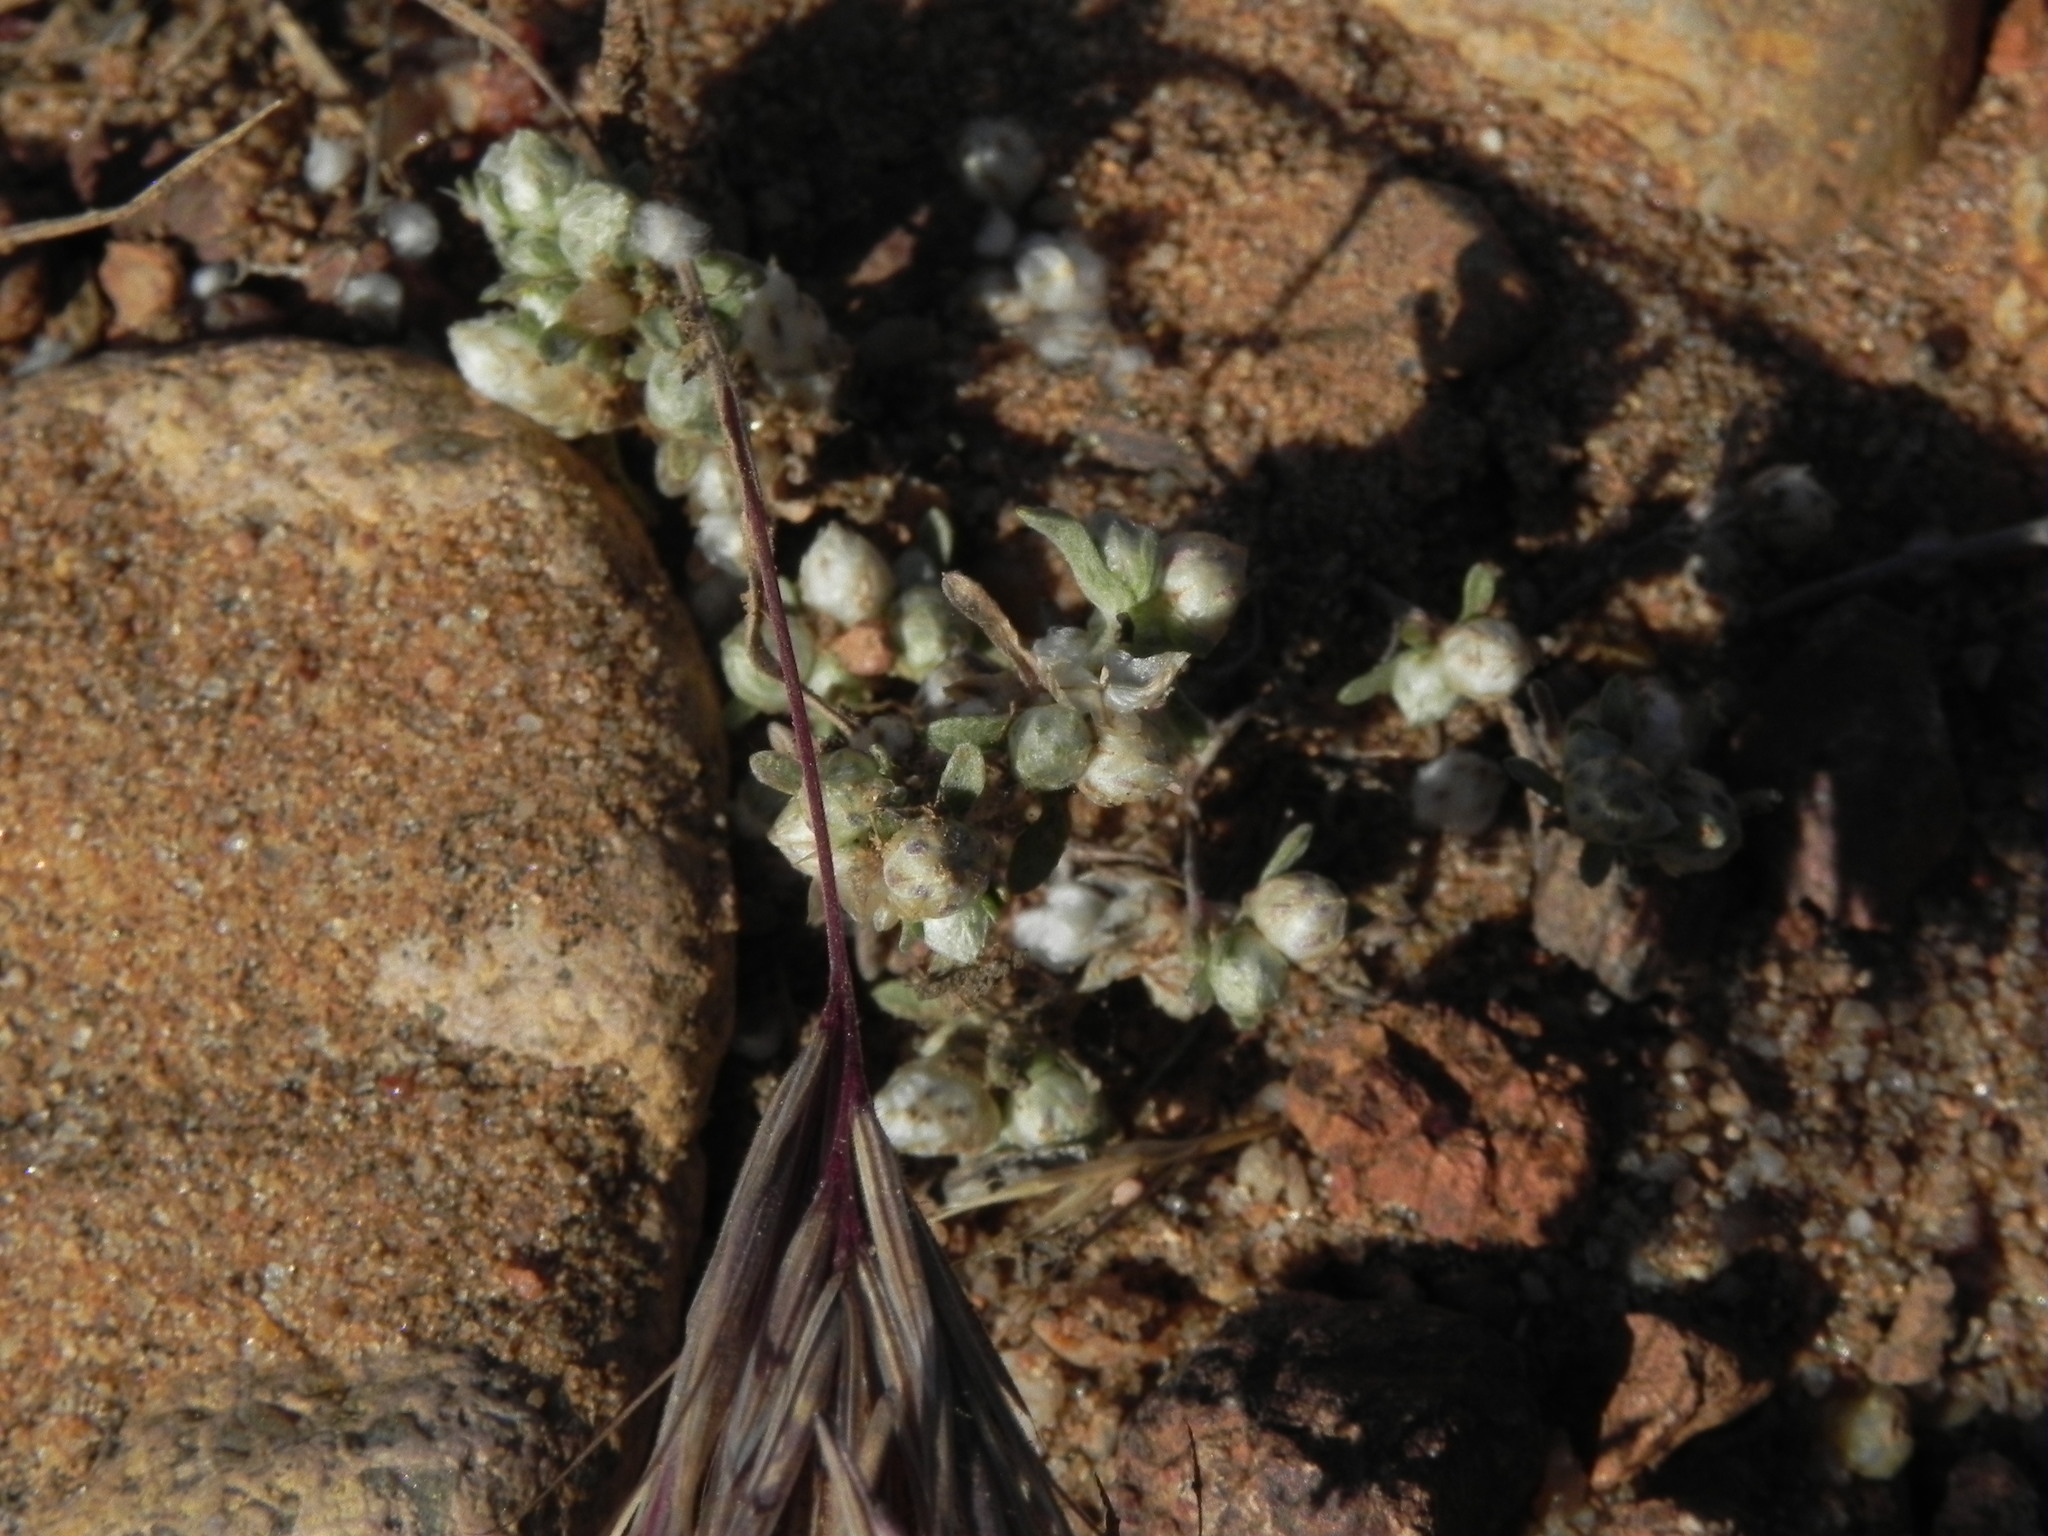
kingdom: Plantae
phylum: Tracheophyta
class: Magnoliopsida
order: Asterales
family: Asteraceae
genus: Stylocline
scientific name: Stylocline gnaphaloides
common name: Everlasting nest-straw
